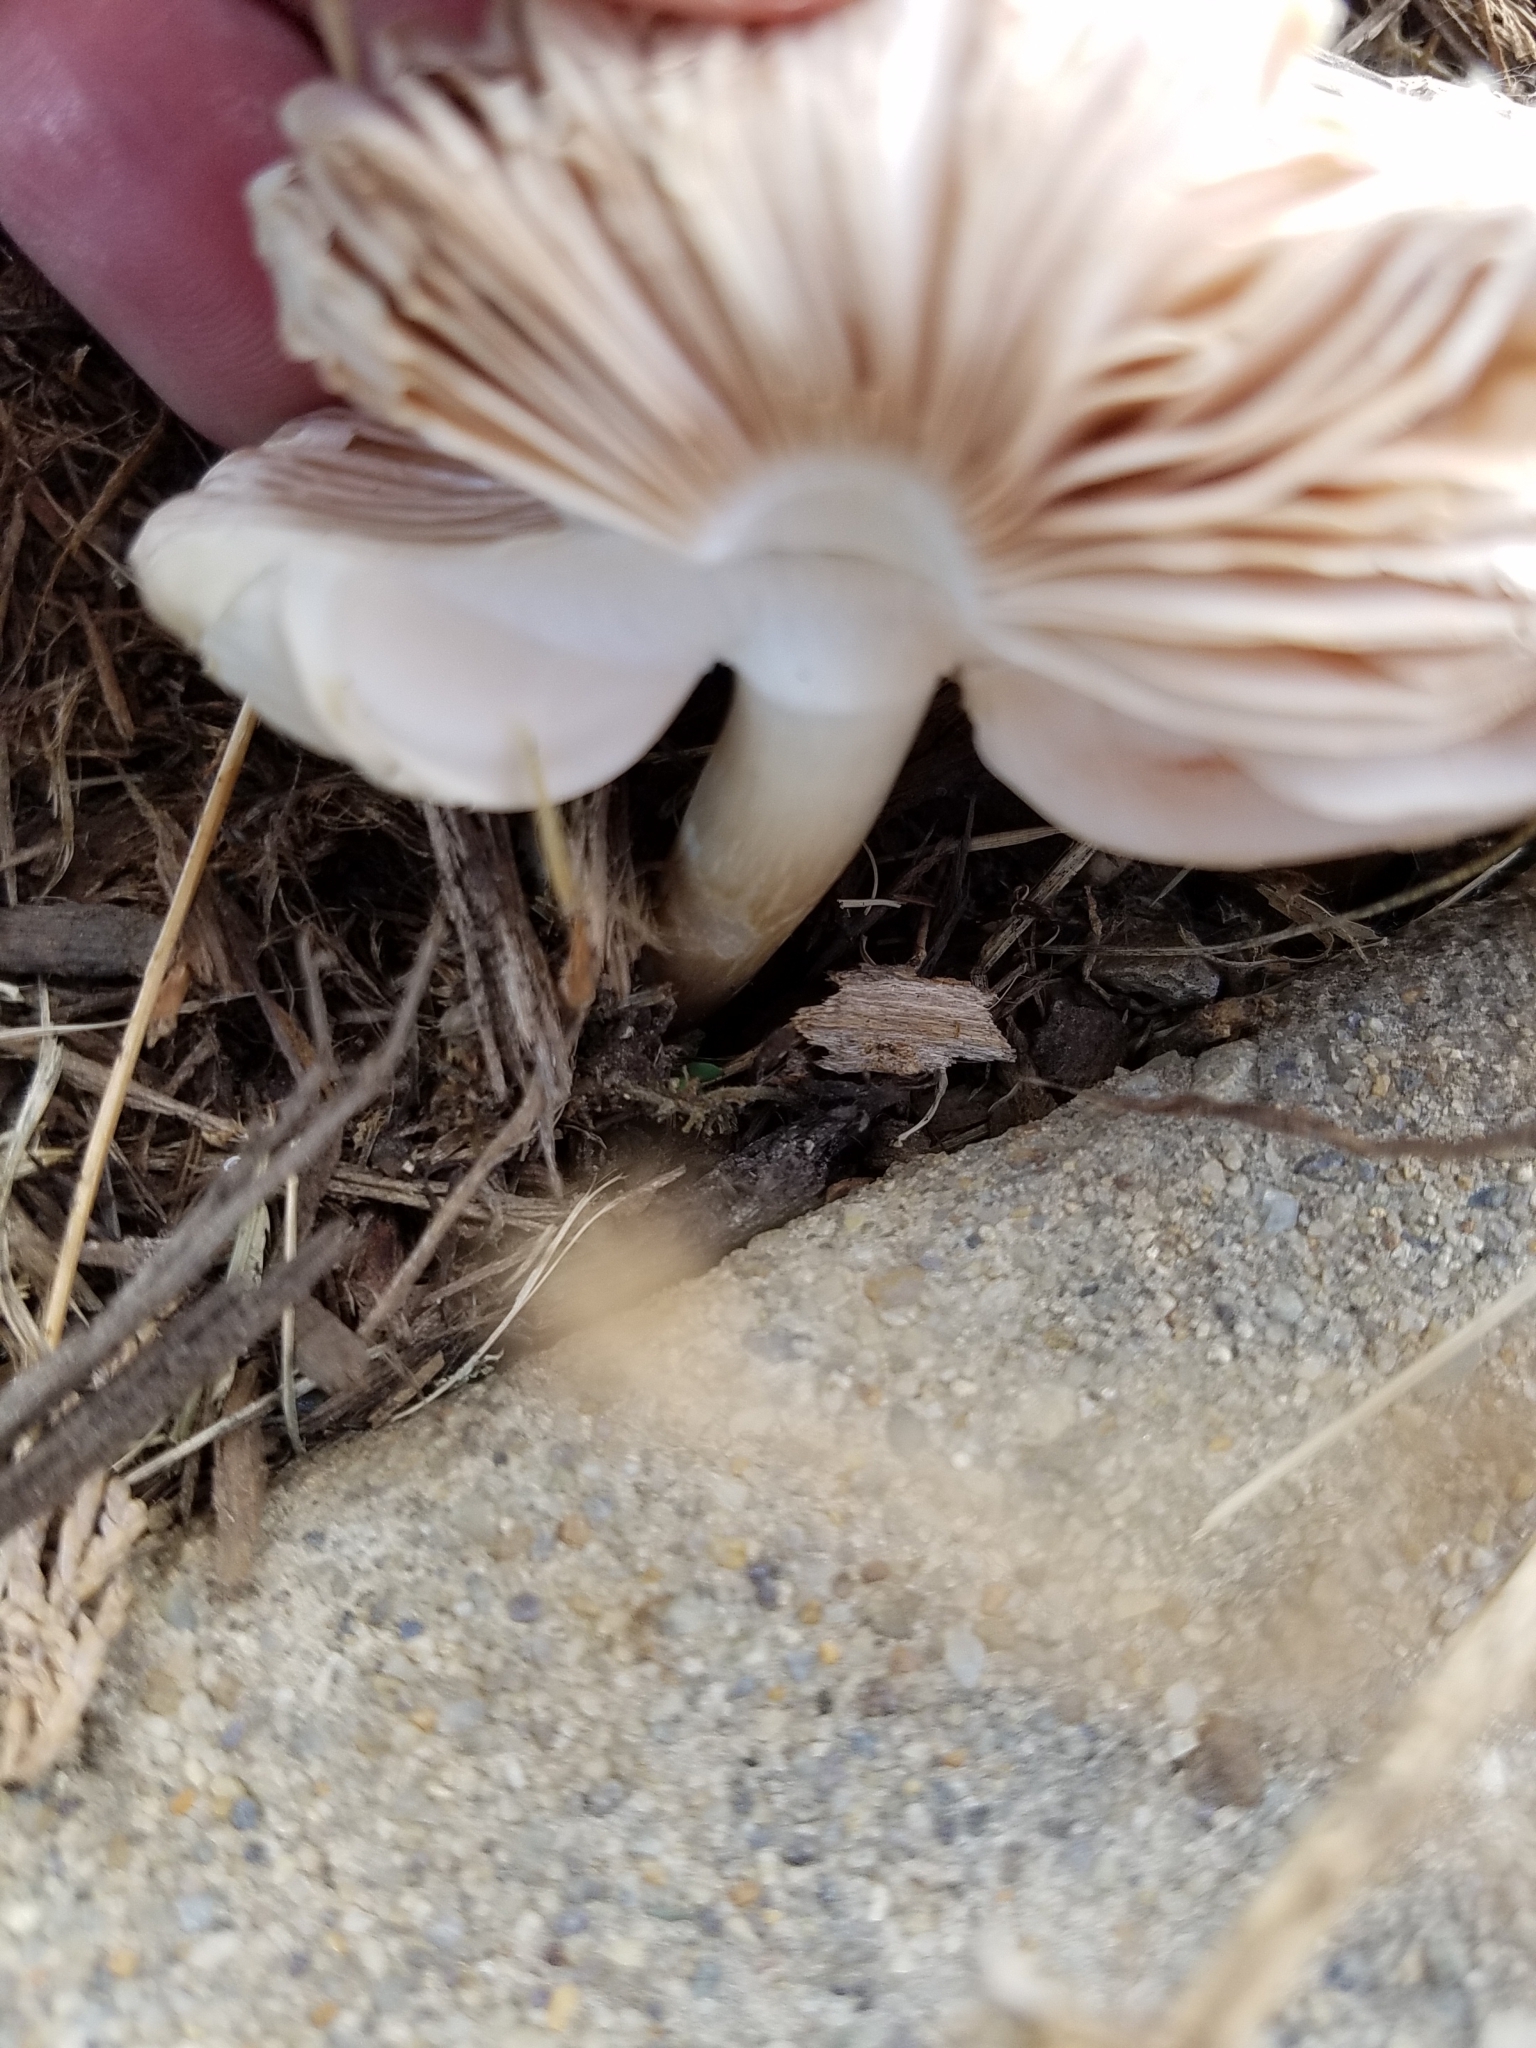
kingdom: Fungi
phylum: Basidiomycota
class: Agaricomycetes
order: Agaricales
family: Pluteaceae
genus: Pluteus
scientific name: Pluteus petasatus
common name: Scaly shield
